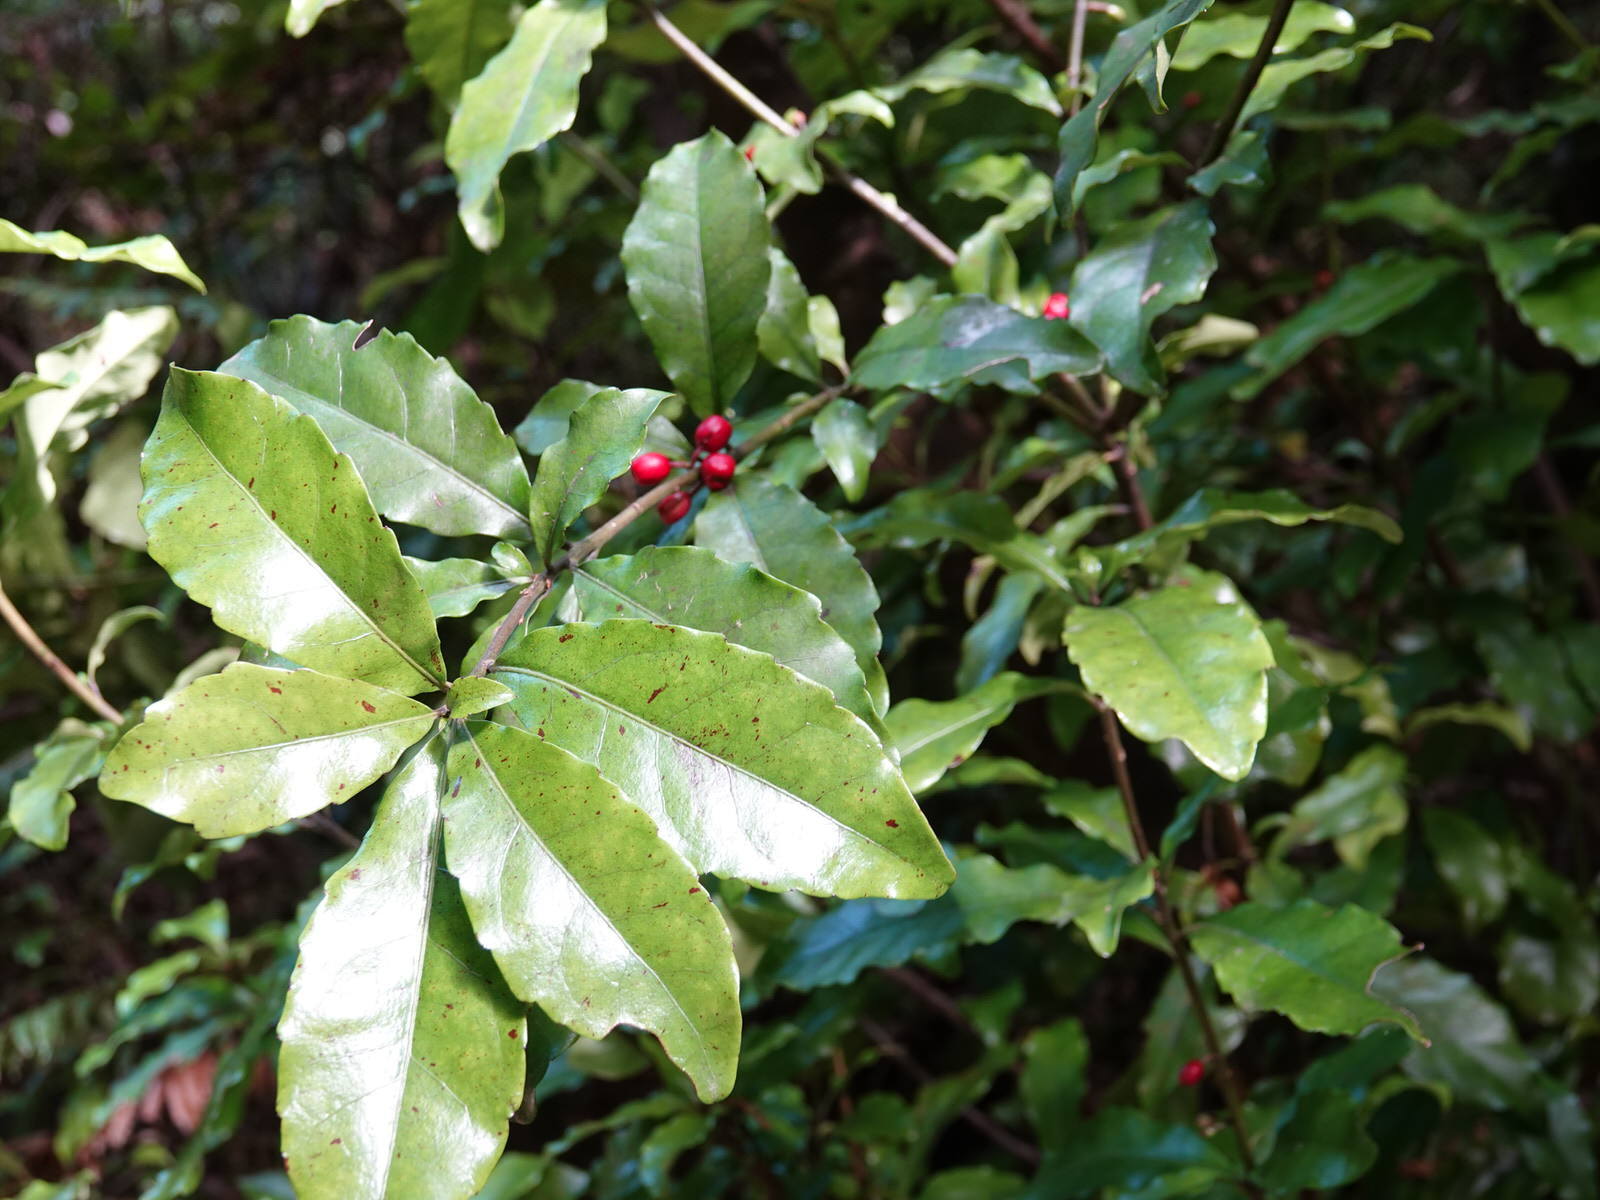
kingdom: Plantae
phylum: Tracheophyta
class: Magnoliopsida
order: Asterales
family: Alseuosmiaceae
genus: Alseuosmia
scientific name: Alseuosmia macrophylla
